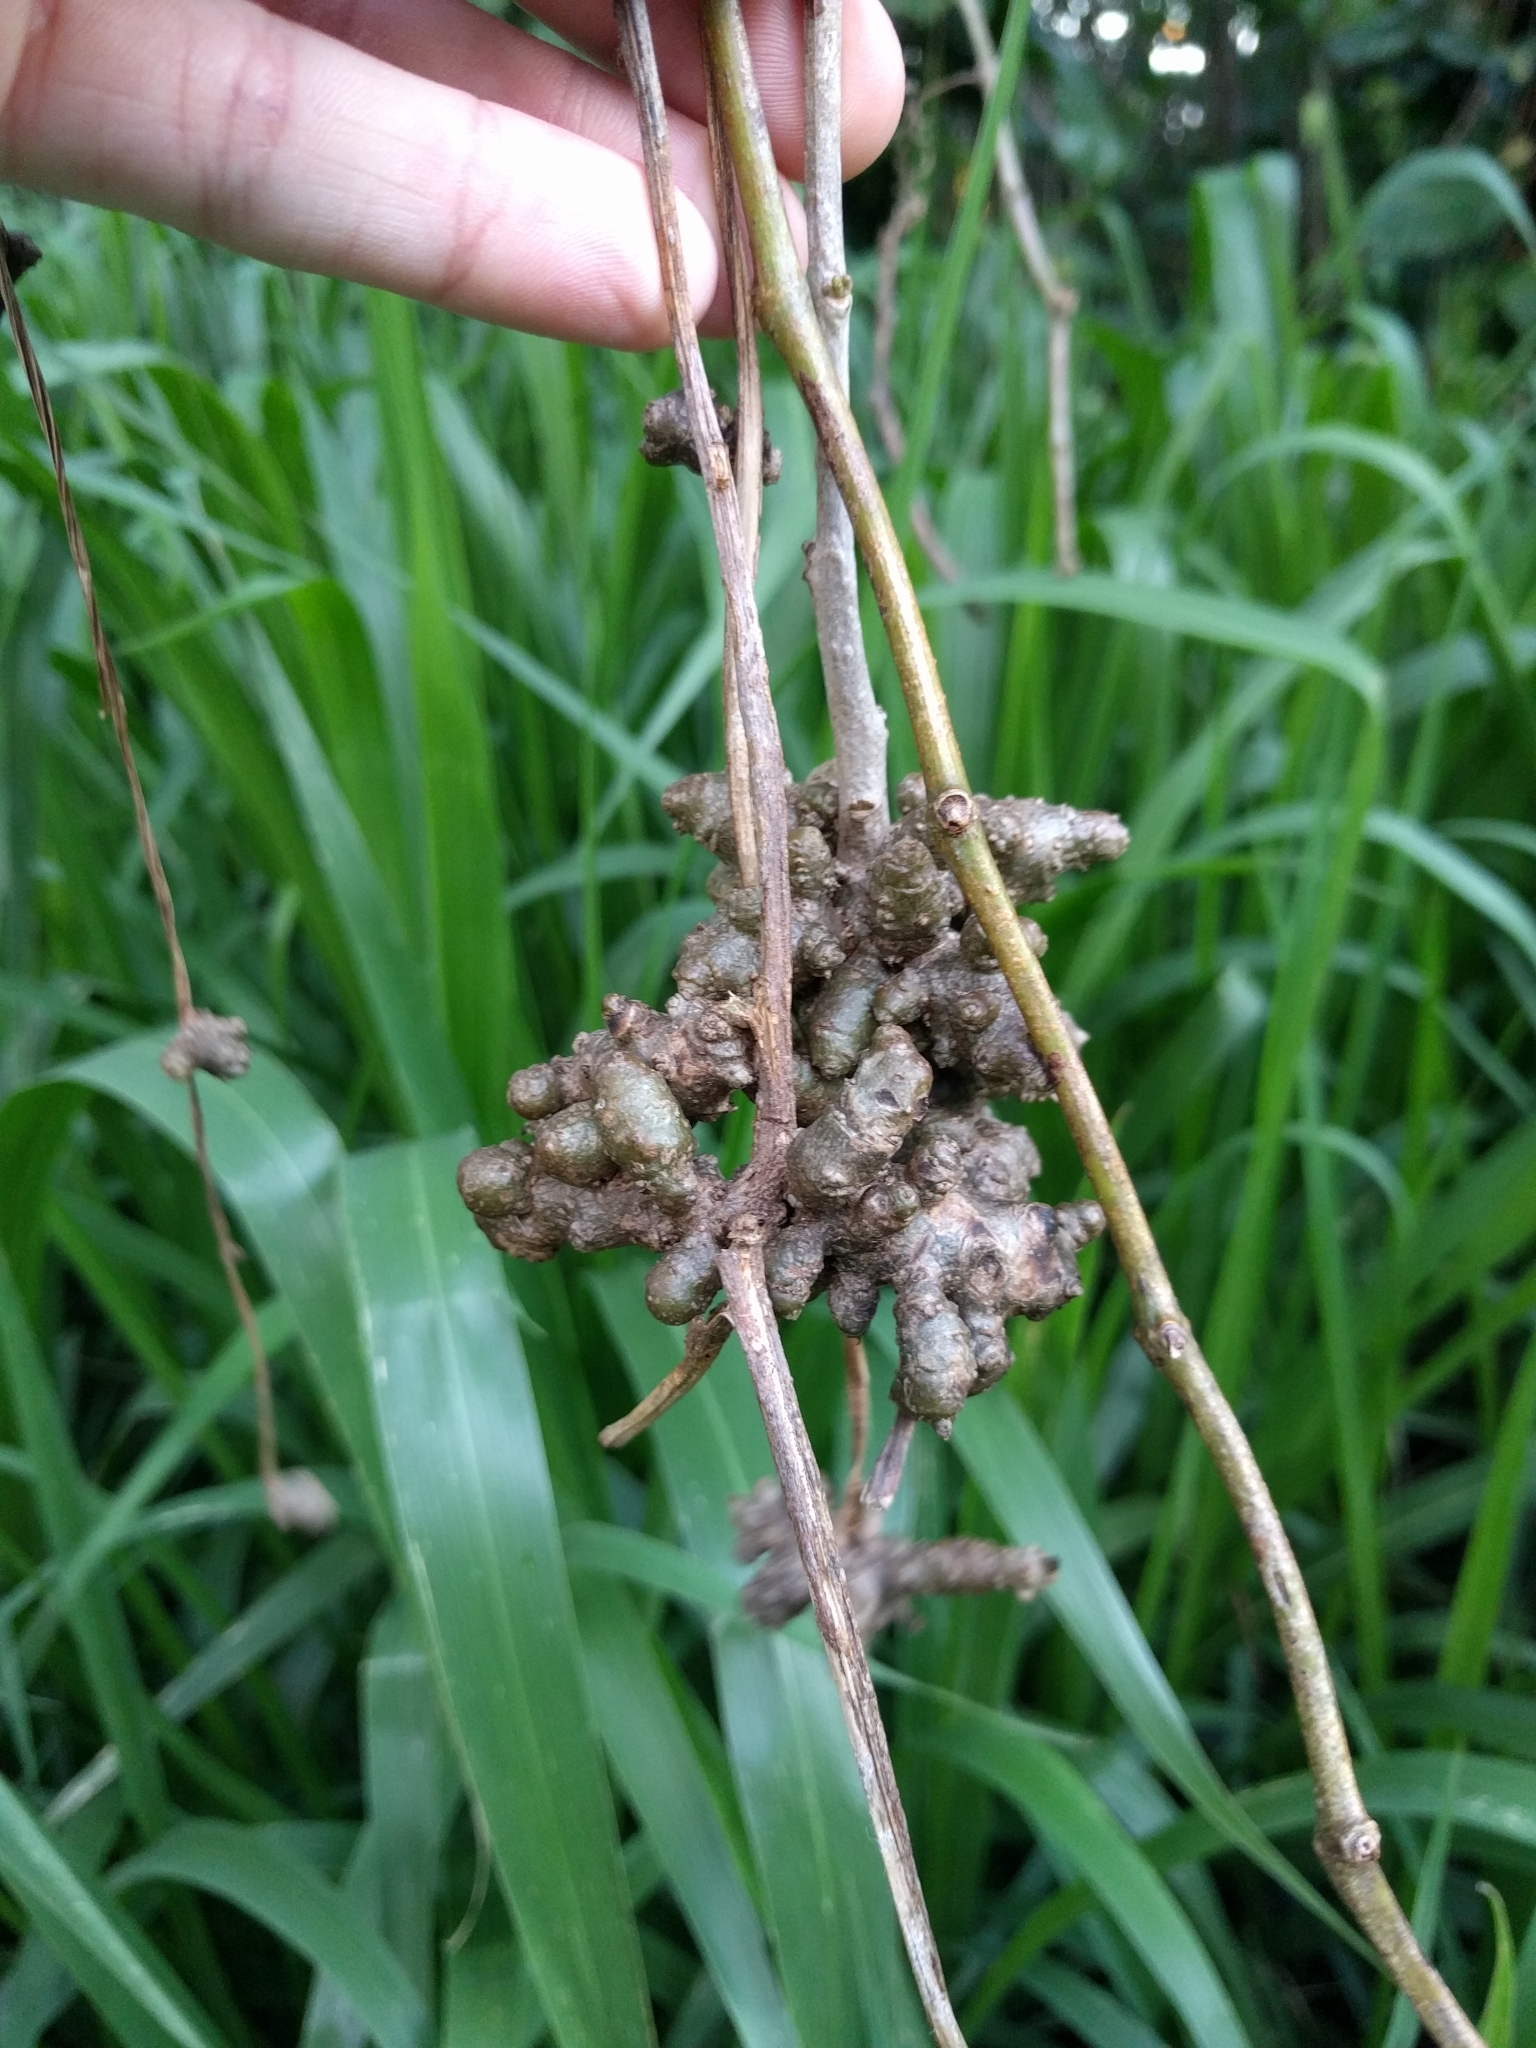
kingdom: Plantae
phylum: Tracheophyta
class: Magnoliopsida
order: Caryophyllales
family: Basellaceae
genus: Anredera
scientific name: Anredera cordifolia
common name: Heartleaf madeiravine
